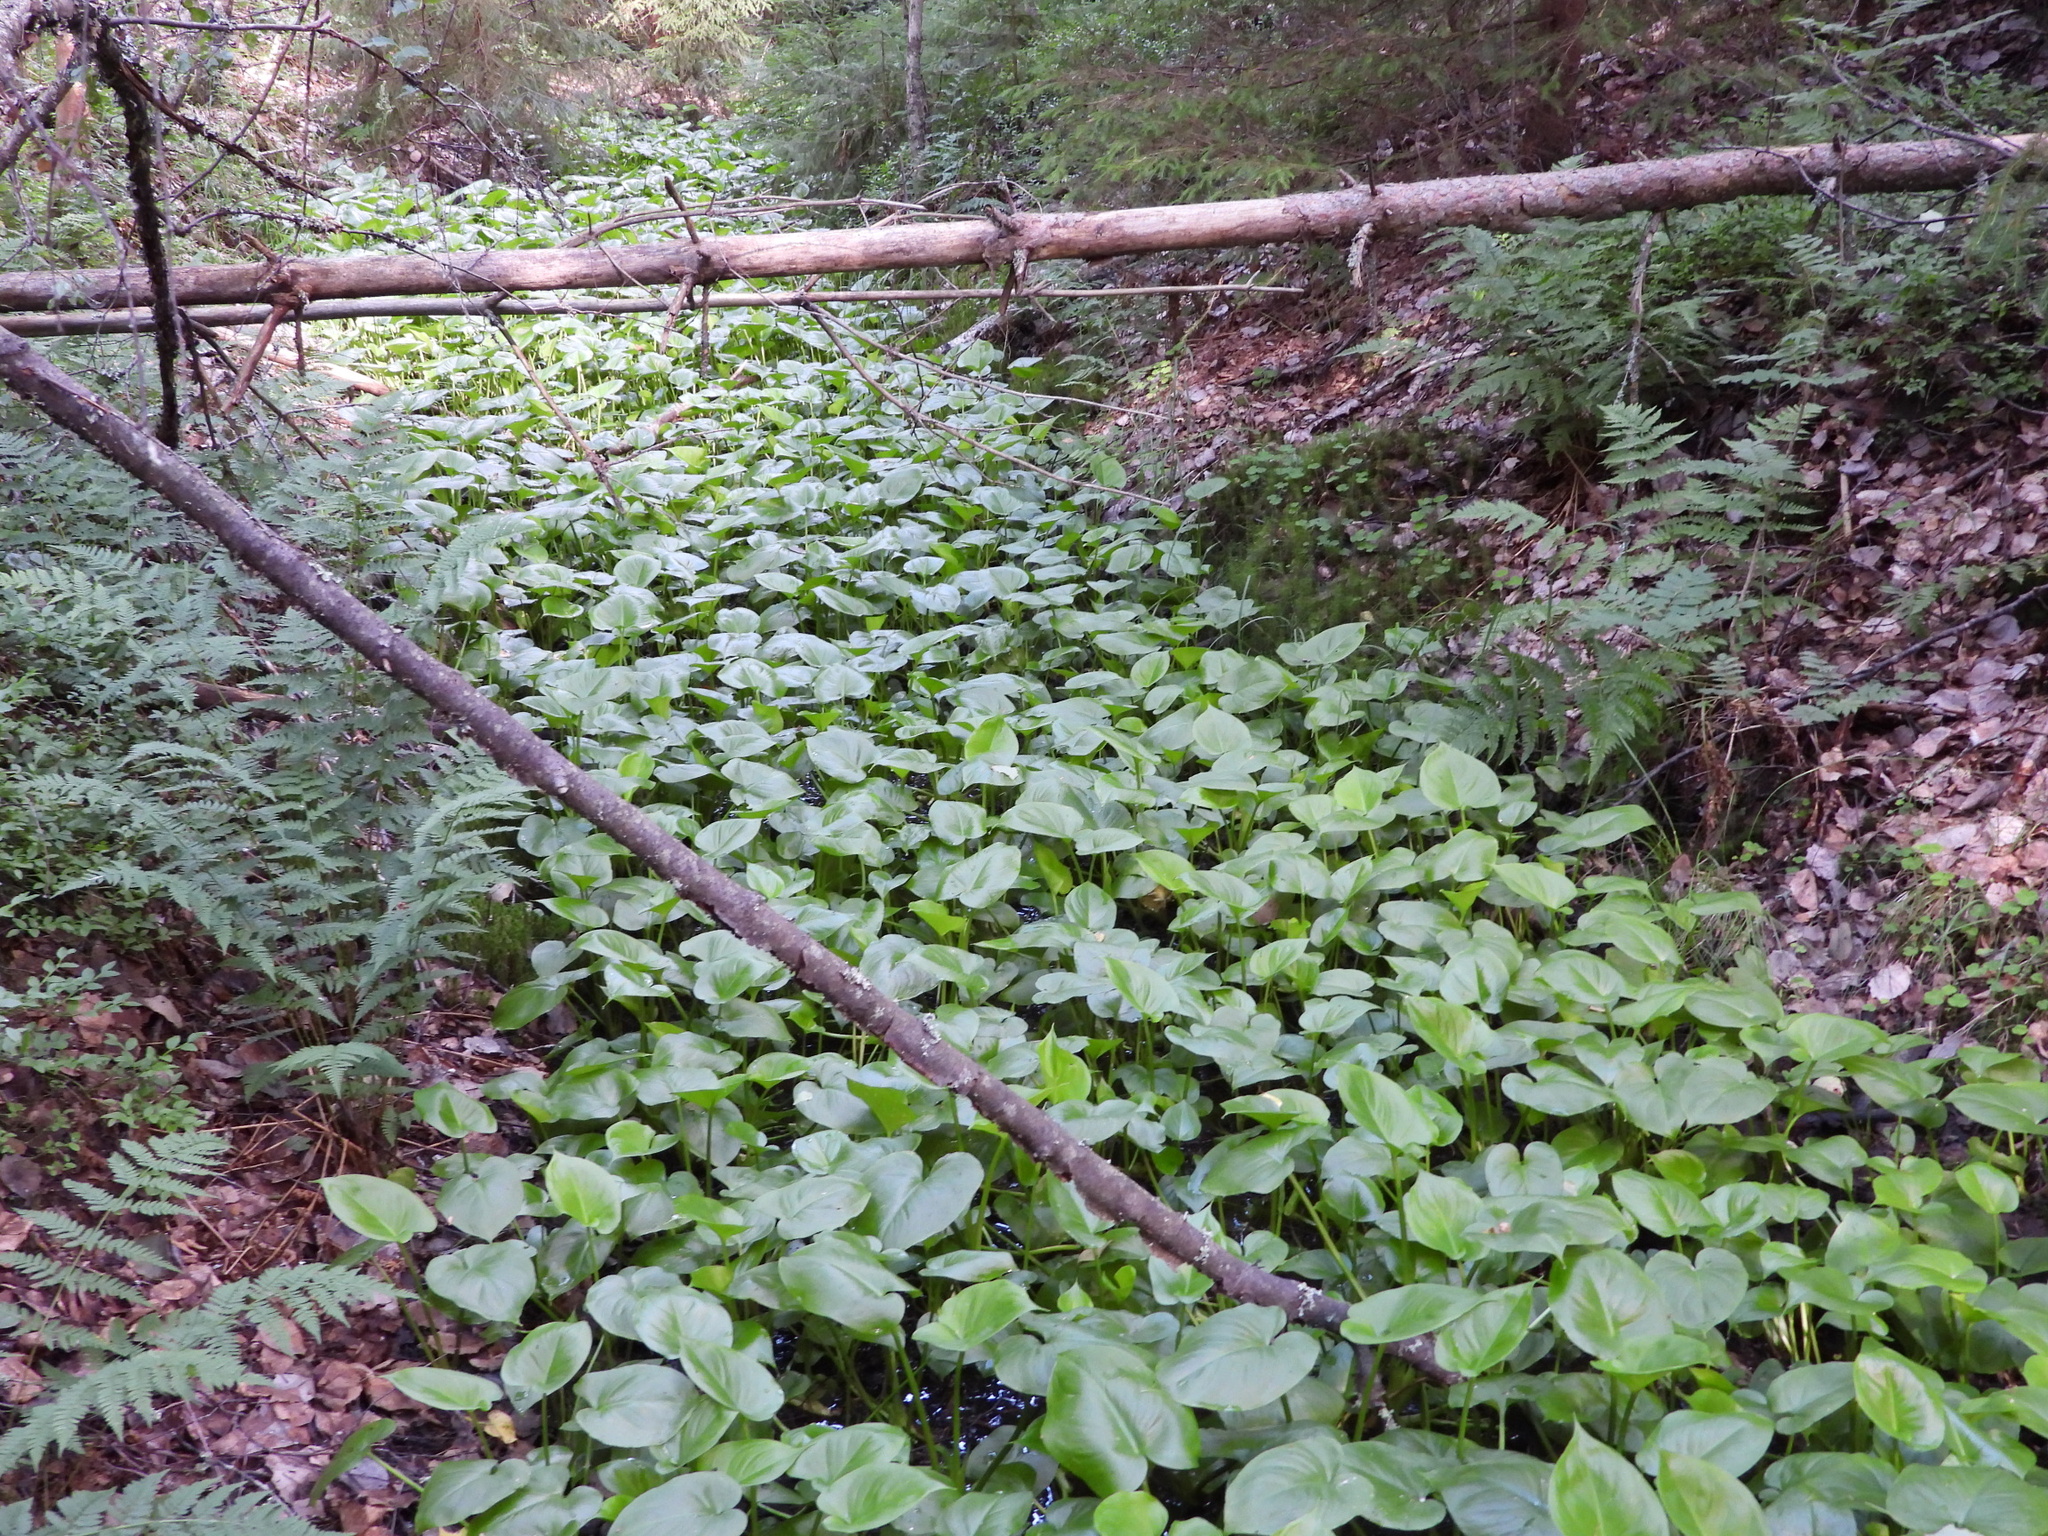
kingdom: Plantae
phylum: Tracheophyta
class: Liliopsida
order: Alismatales
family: Araceae
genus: Calla
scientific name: Calla palustris
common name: Bog arum
